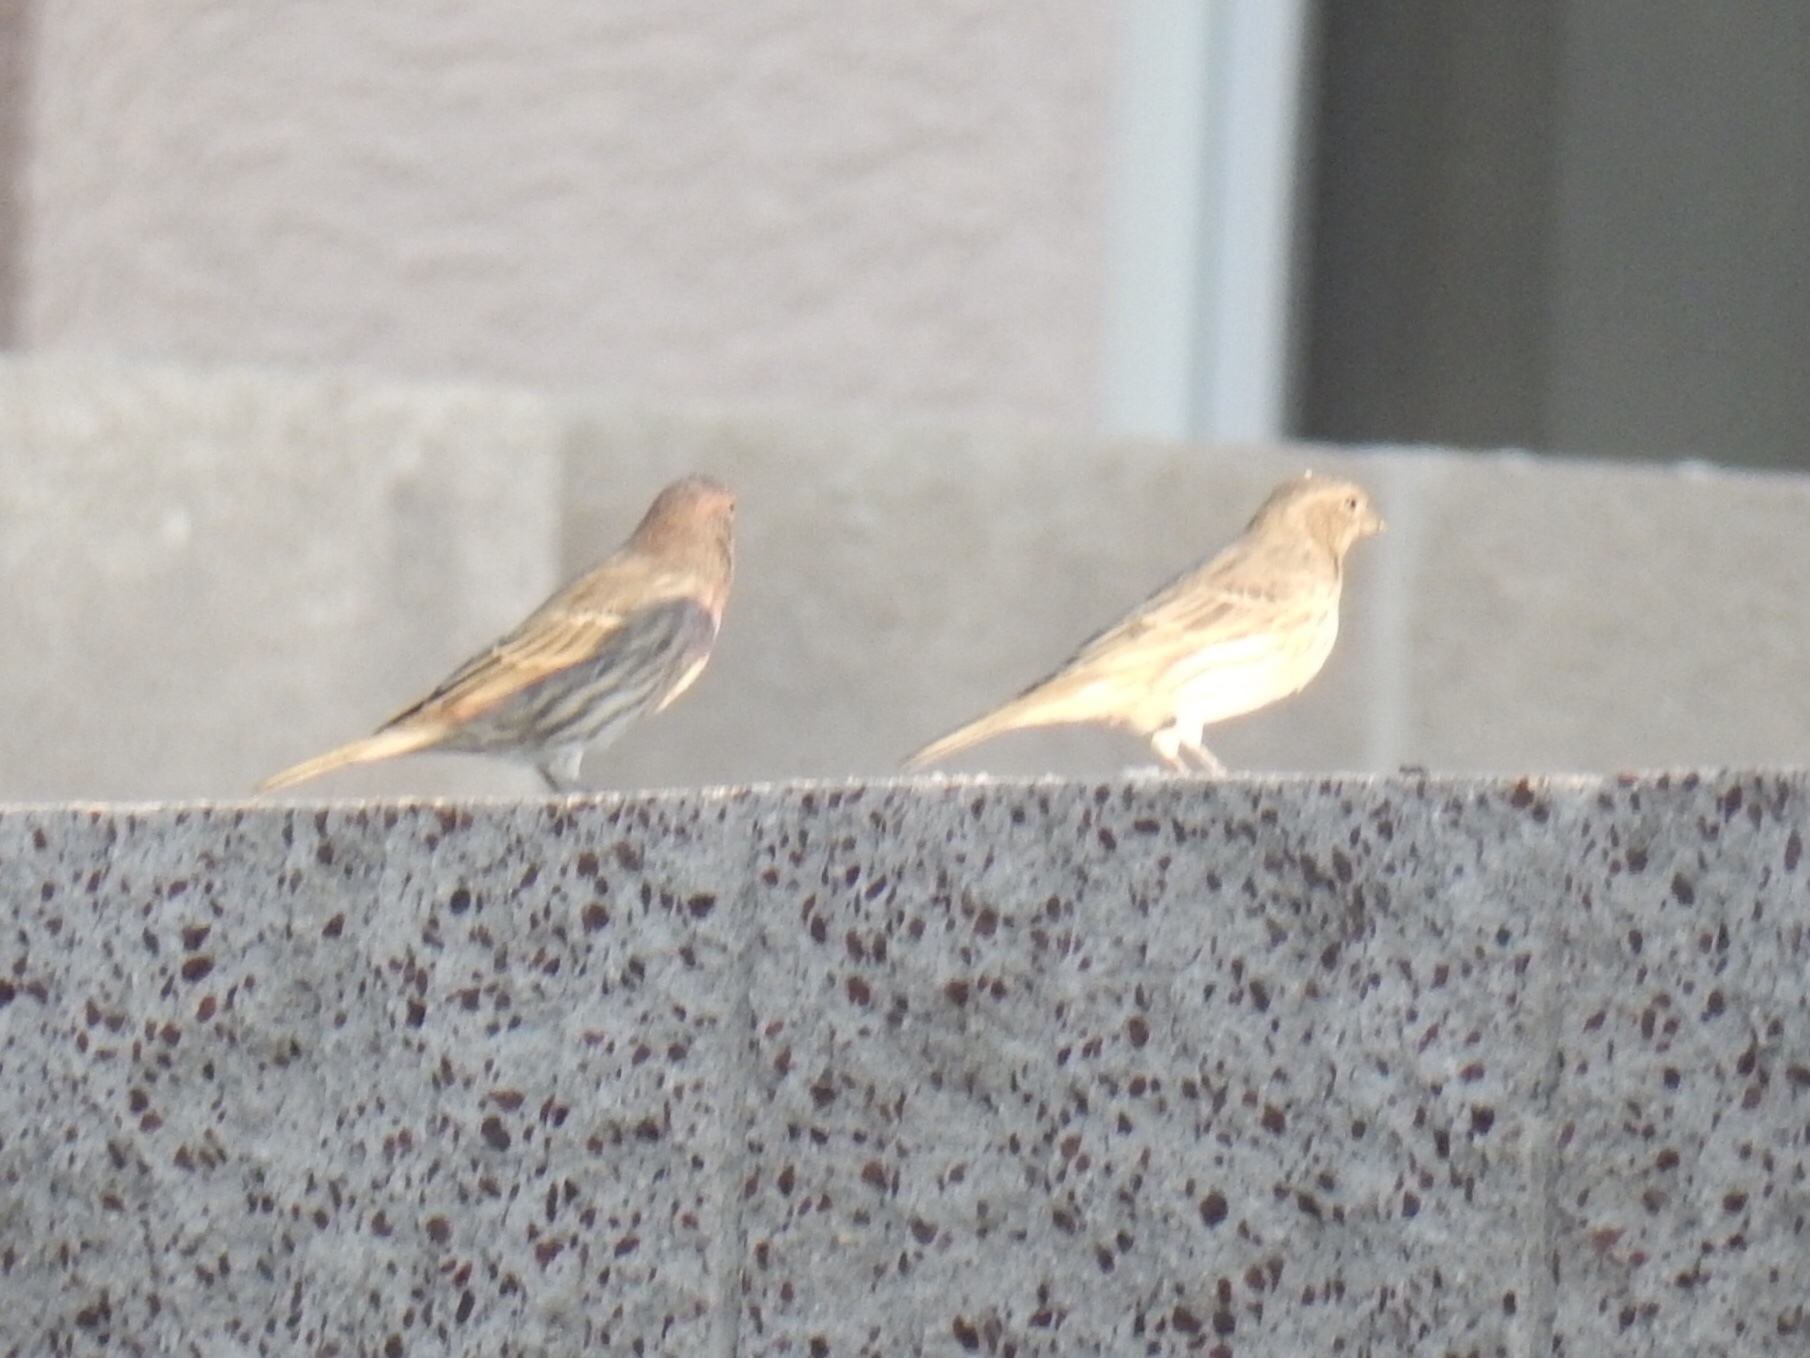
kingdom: Animalia
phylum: Chordata
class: Aves
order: Passeriformes
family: Fringillidae
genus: Haemorhous
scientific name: Haemorhous mexicanus
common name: House finch
